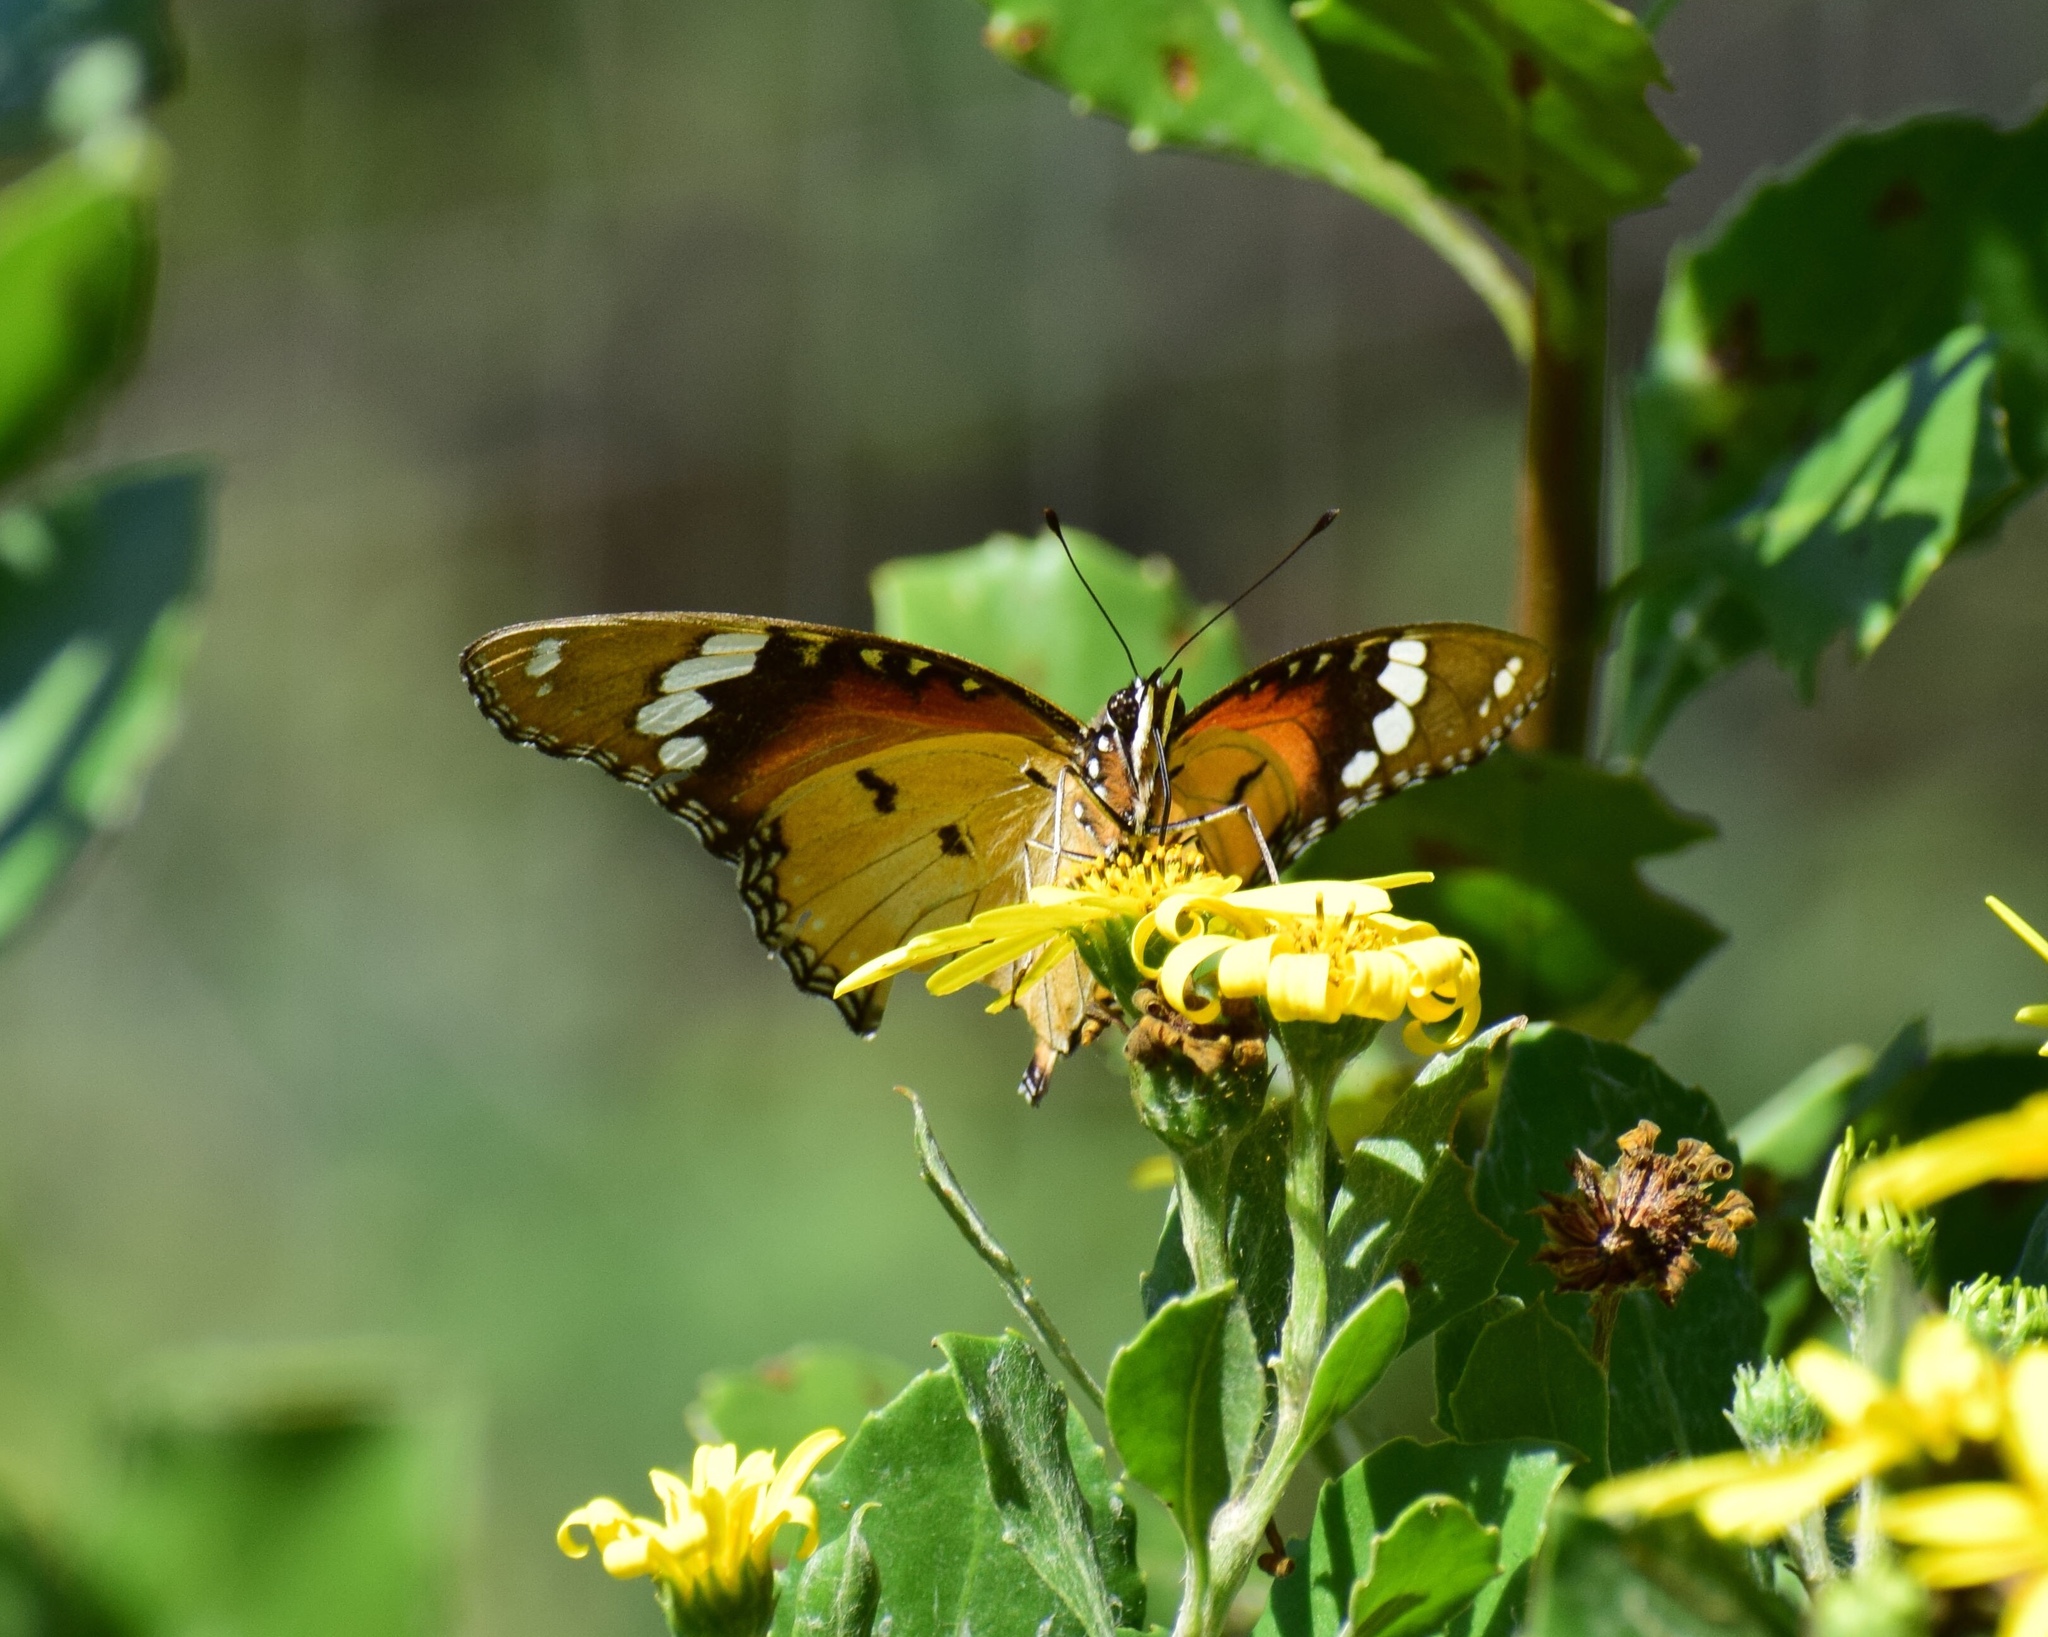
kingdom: Animalia
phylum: Arthropoda
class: Insecta
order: Lepidoptera
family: Nymphalidae
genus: Hypolimnas
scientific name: Hypolimnas misippus
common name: False plain tiger
